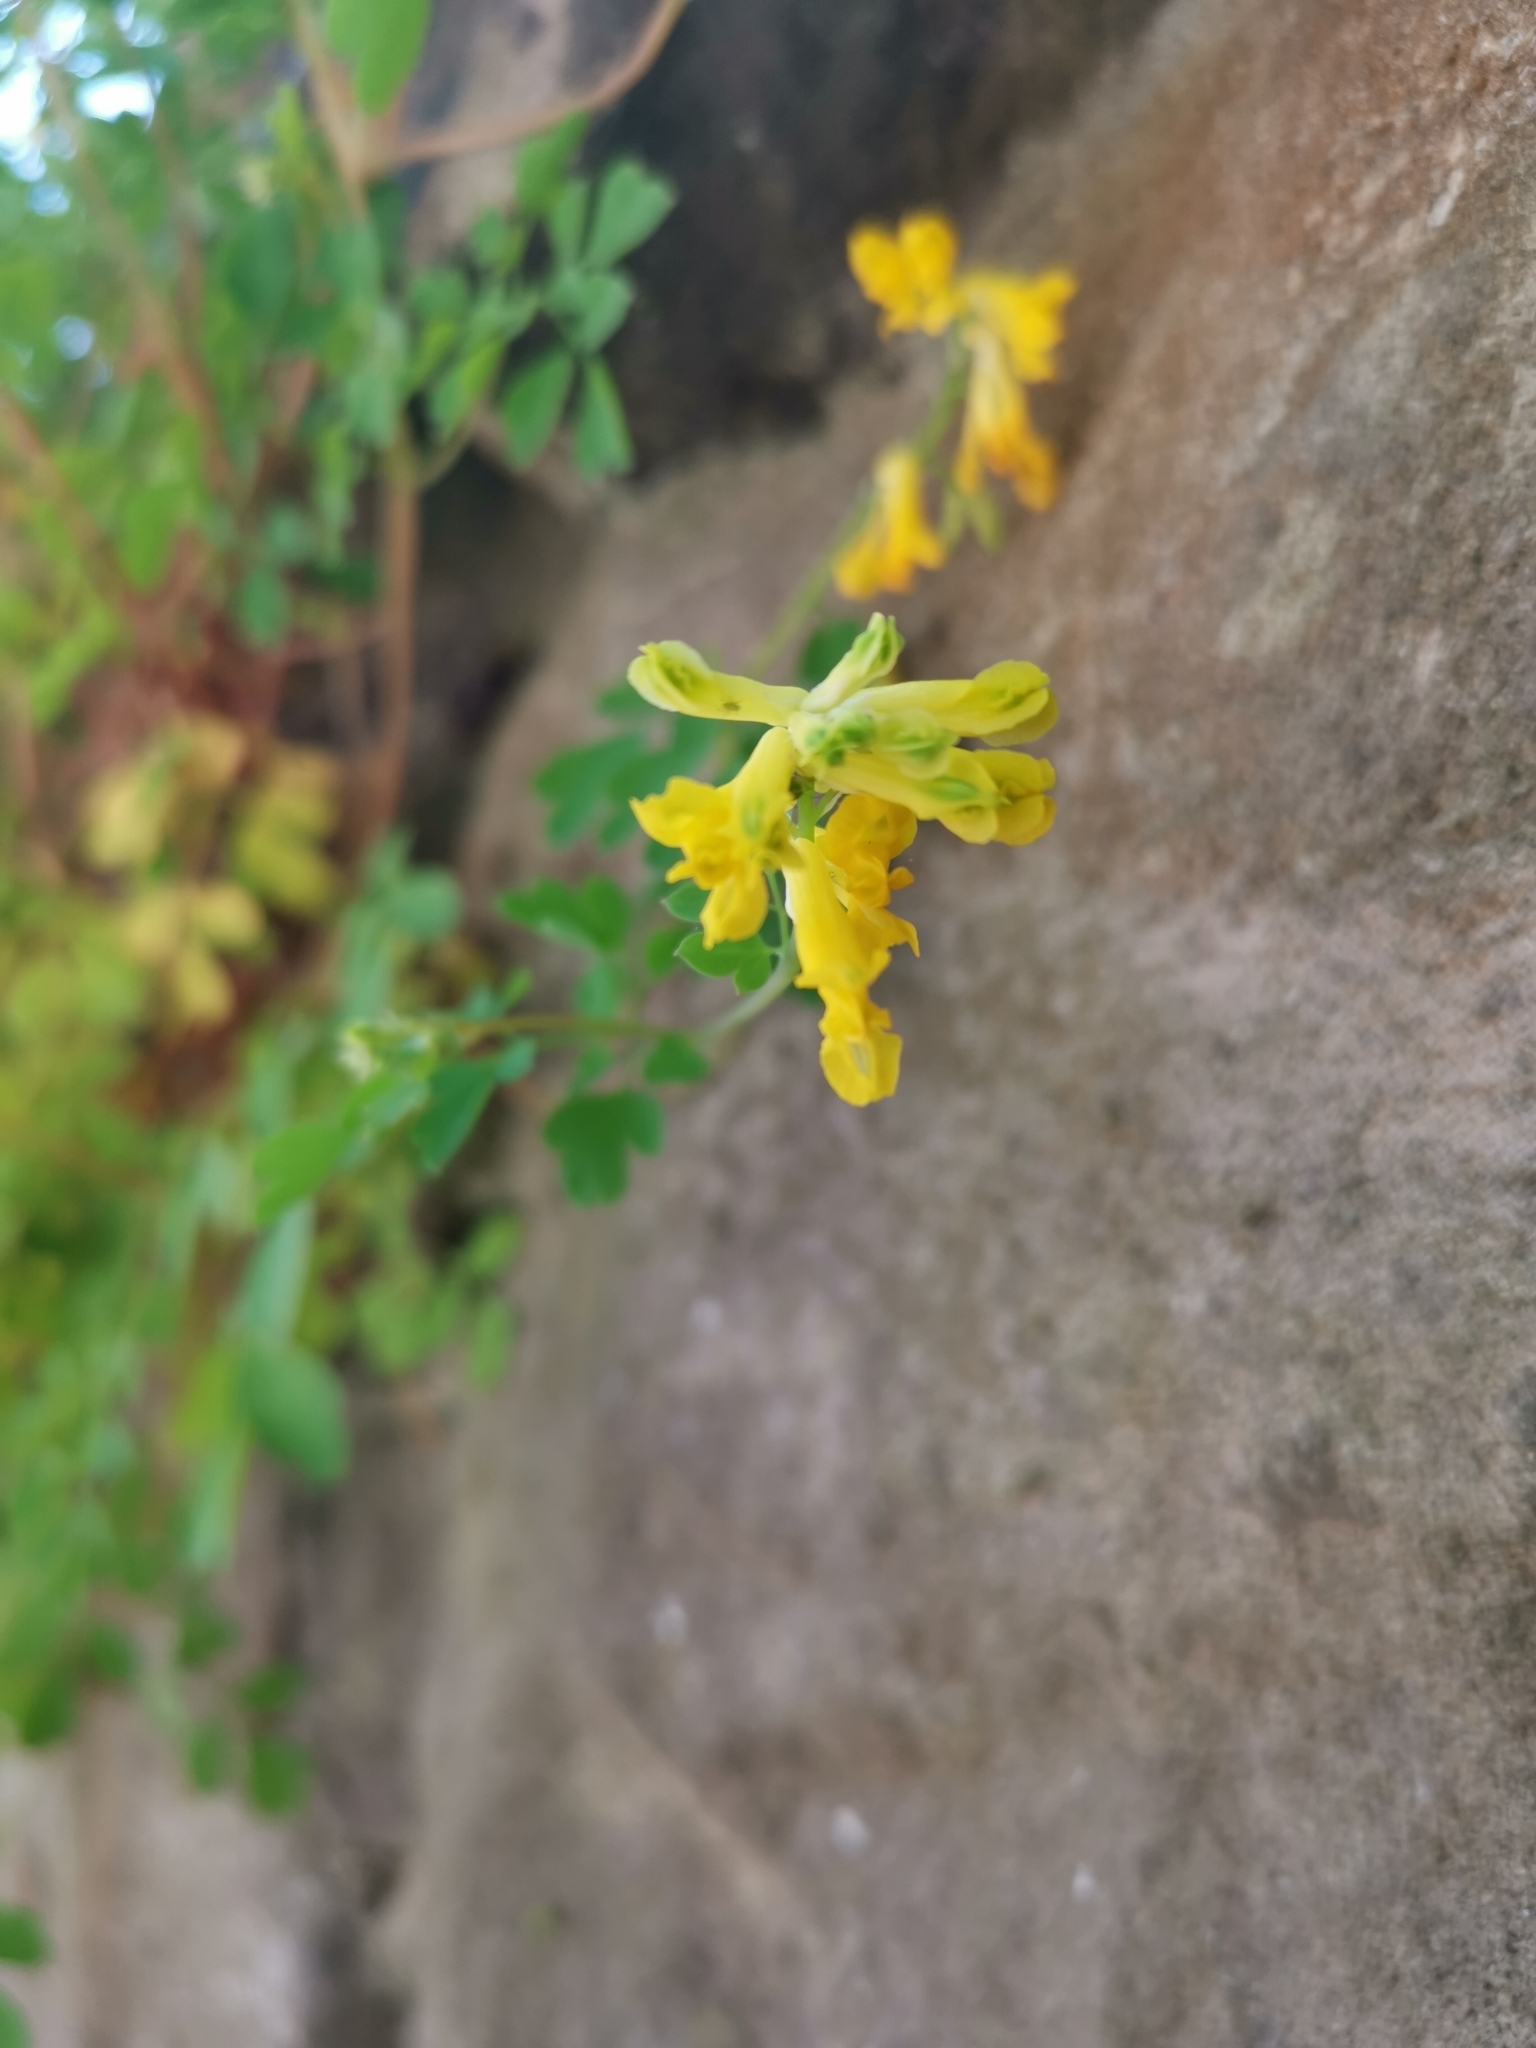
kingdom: Plantae
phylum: Tracheophyta
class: Magnoliopsida
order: Ranunculales
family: Papaveraceae
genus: Pseudofumaria
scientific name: Pseudofumaria lutea
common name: Yellow corydalis
